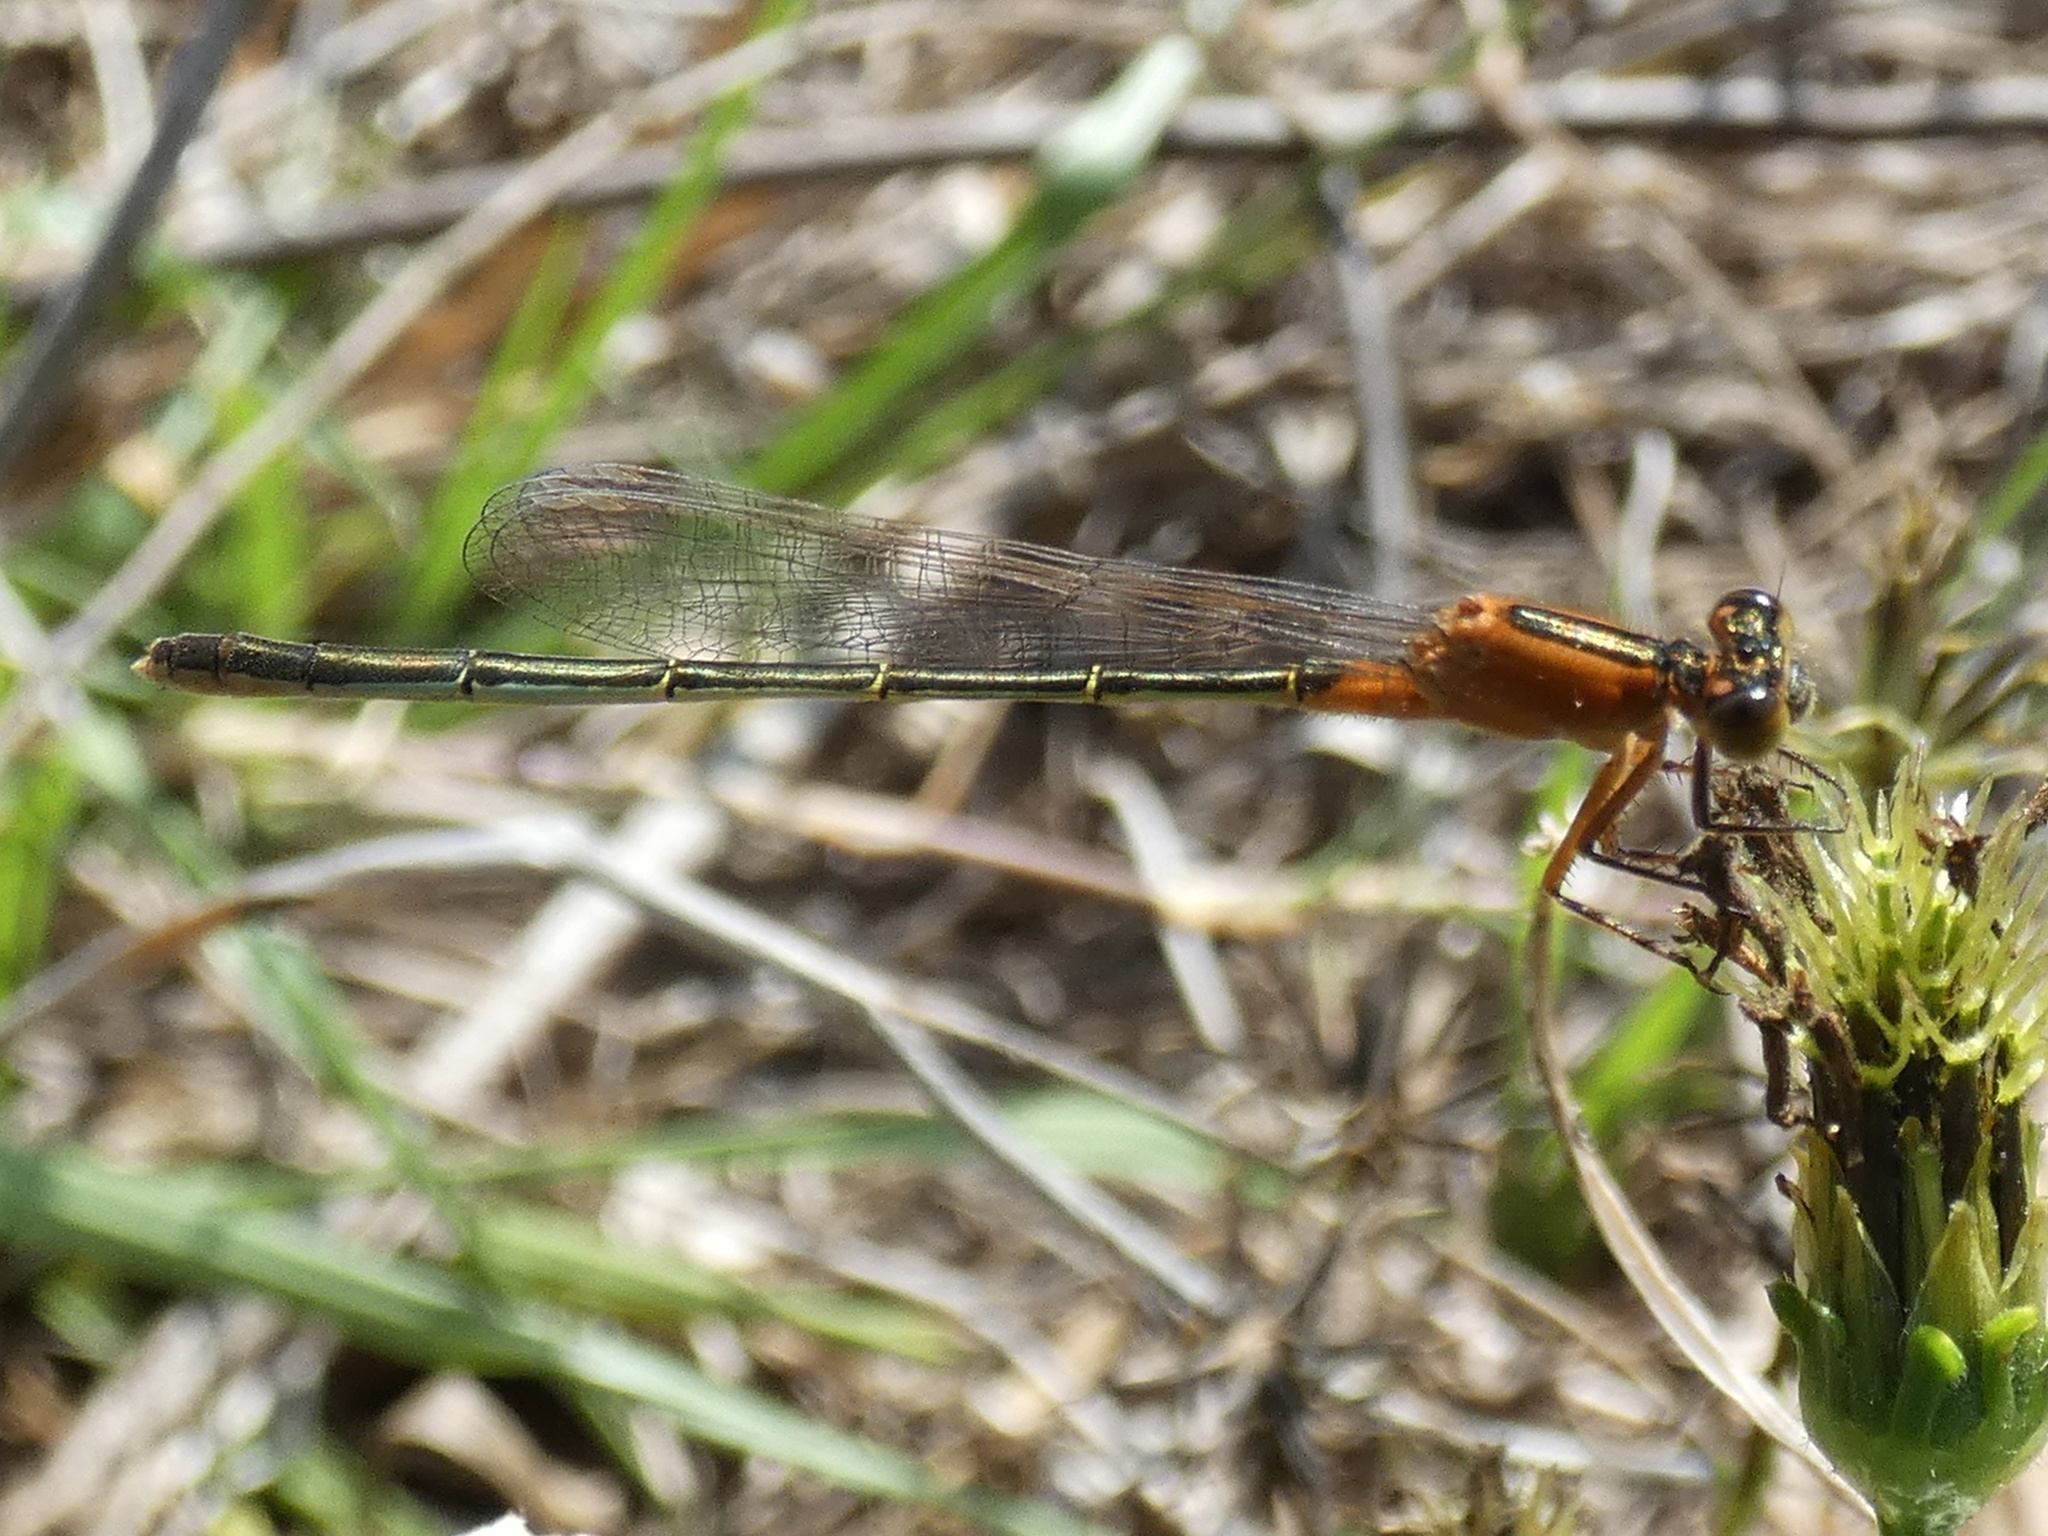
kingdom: Animalia
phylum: Arthropoda
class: Insecta
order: Odonata
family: Coenagrionidae
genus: Ischnura
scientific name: Ischnura ramburii
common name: Rambur's forktail
